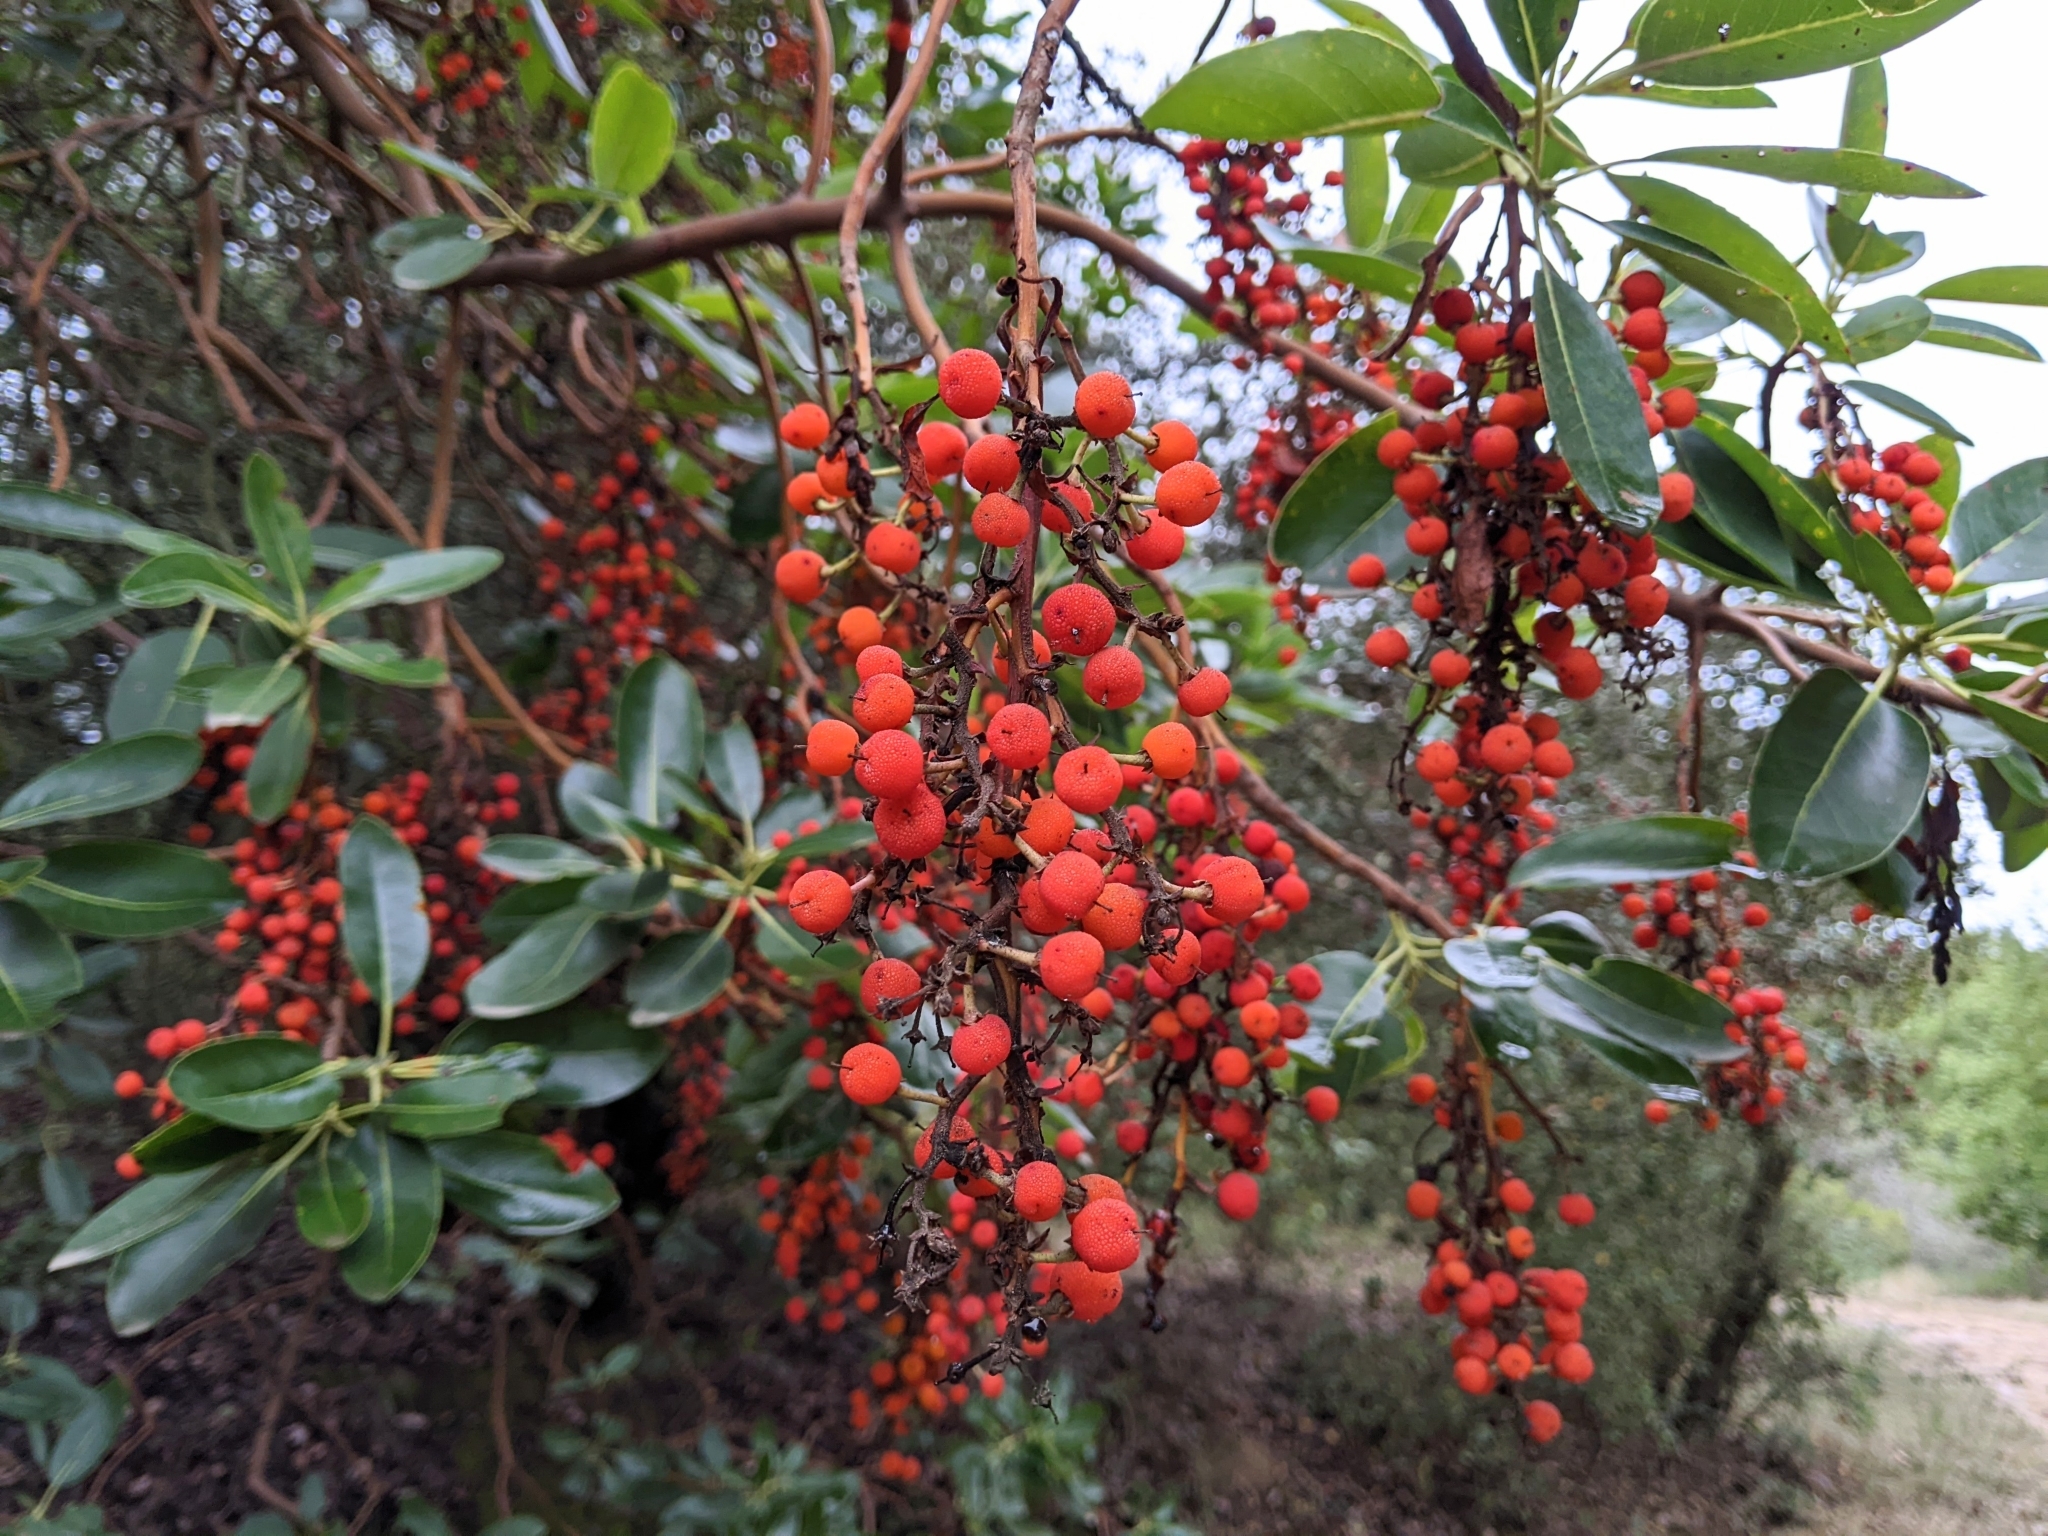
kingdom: Plantae
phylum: Tracheophyta
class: Magnoliopsida
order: Ericales
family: Ericaceae
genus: Arbutus
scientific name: Arbutus menziesii
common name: Pacific madrone
